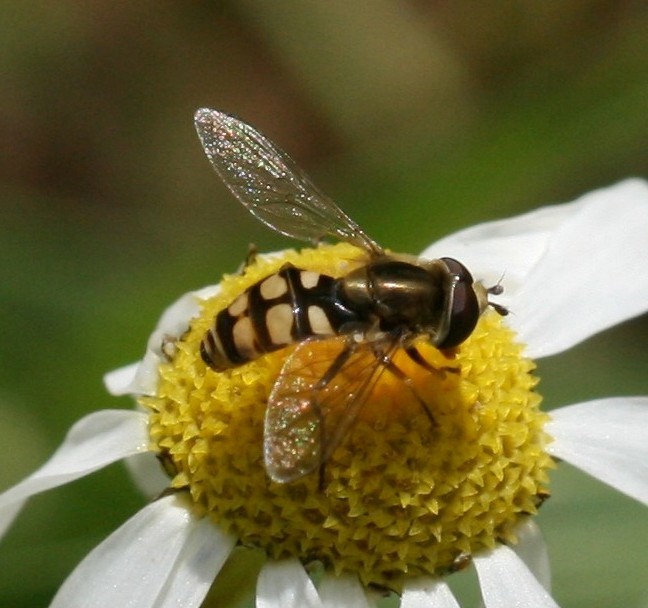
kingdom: Animalia
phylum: Arthropoda
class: Insecta
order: Diptera
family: Syrphidae
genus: Eupeodes
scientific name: Eupeodes corollae
